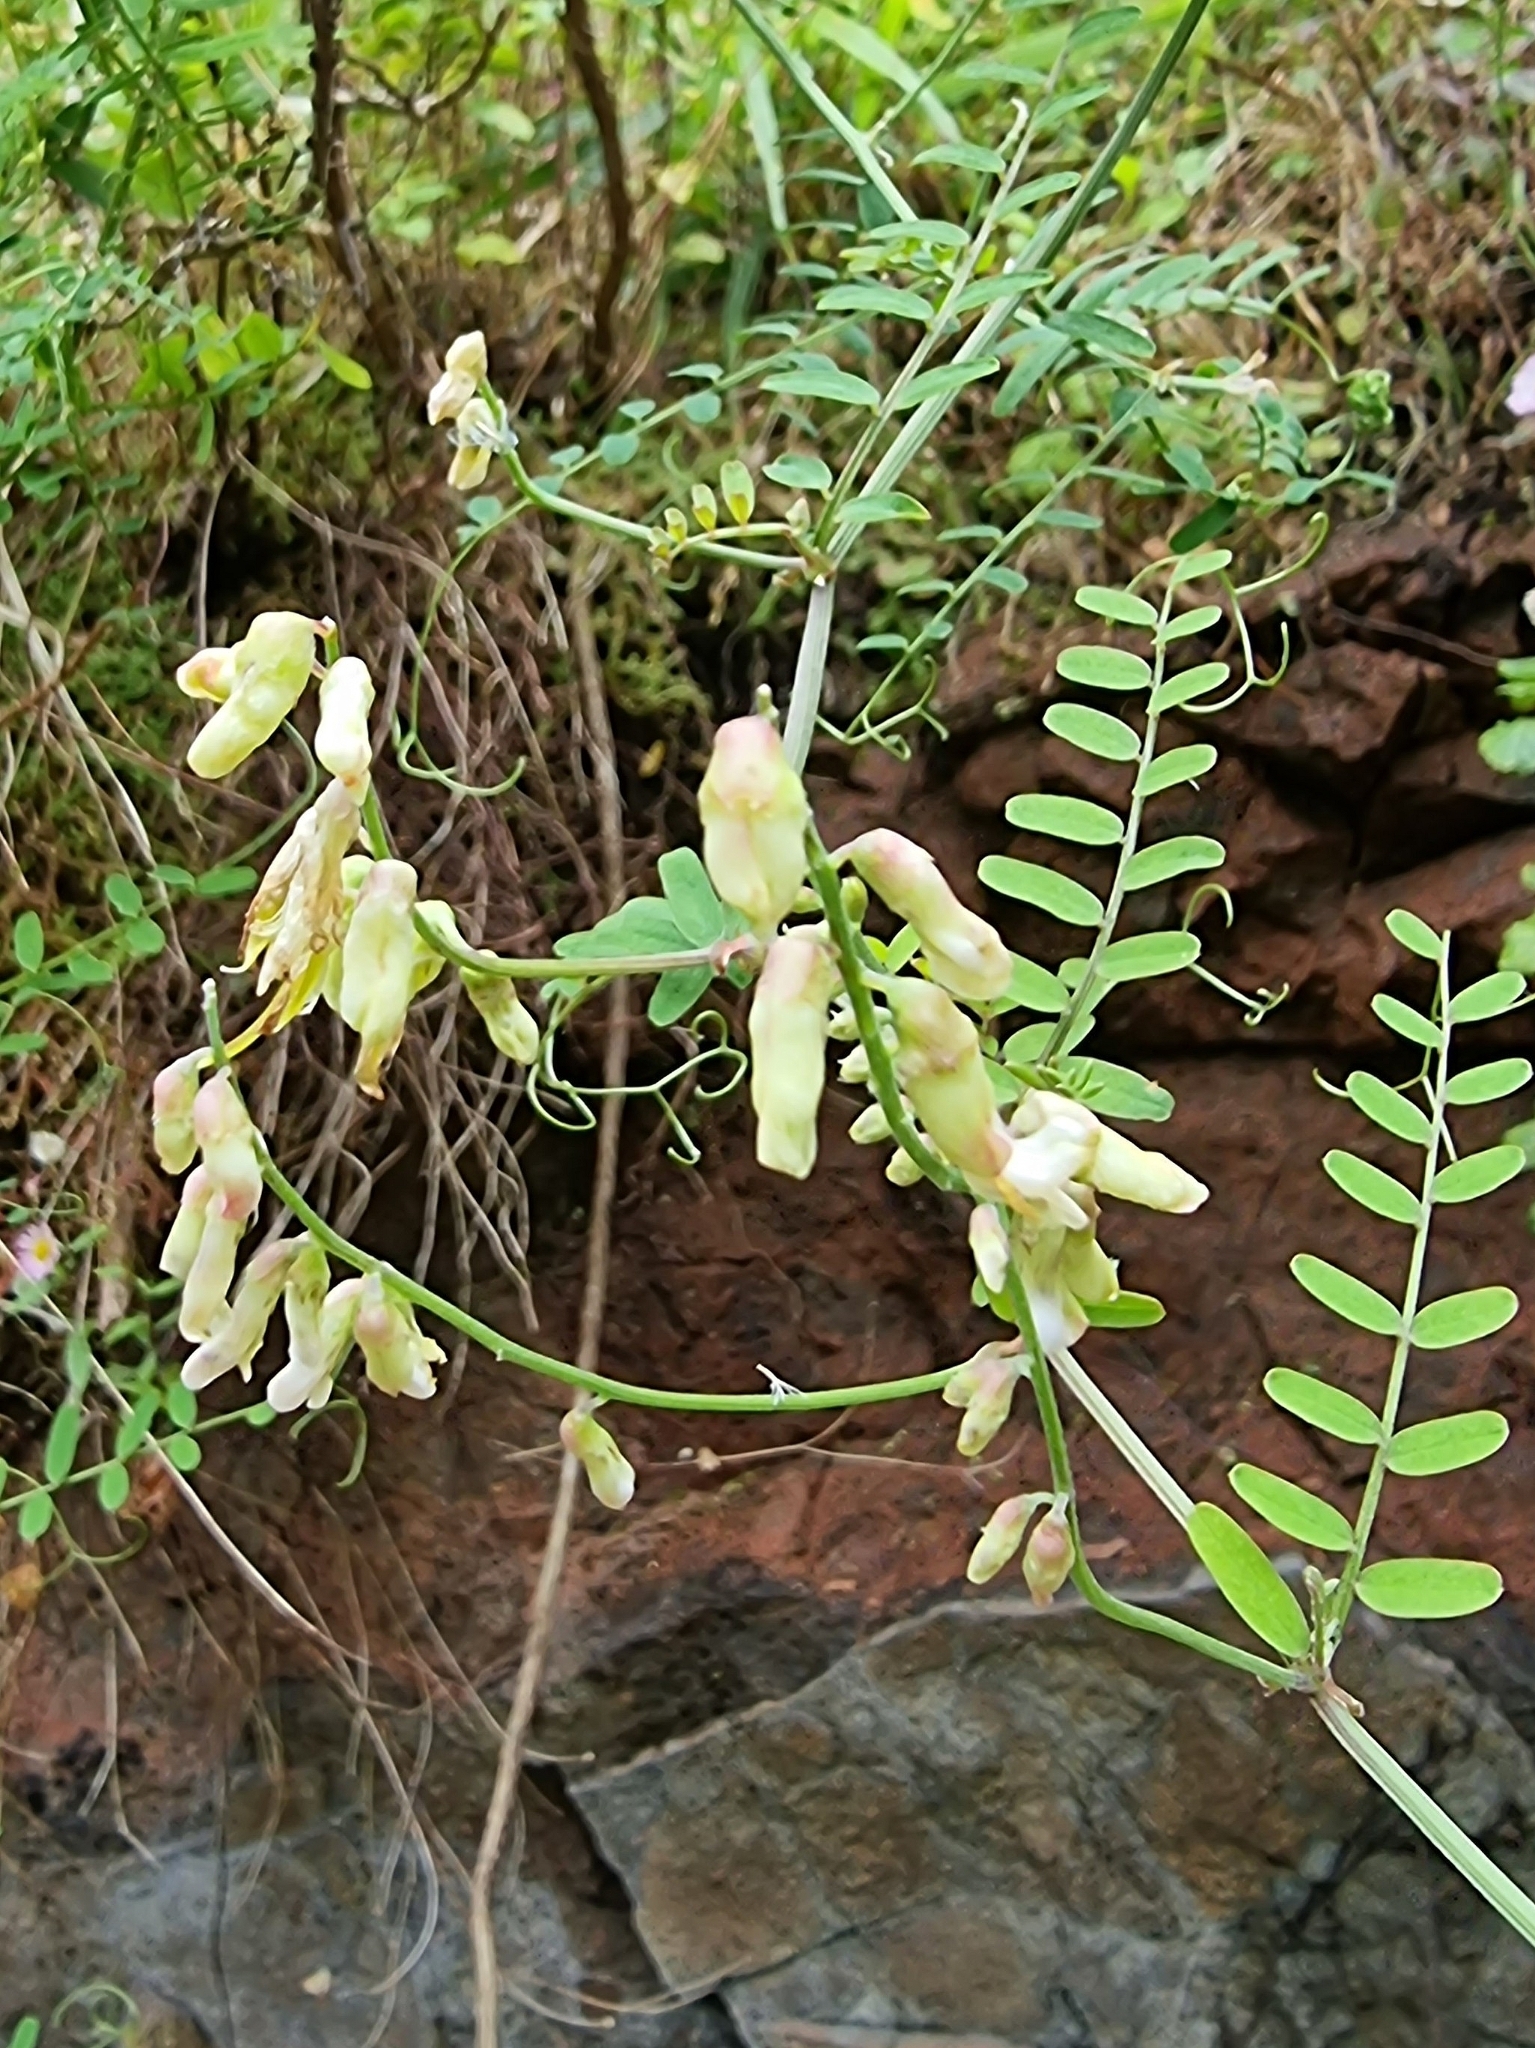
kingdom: Plantae
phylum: Tracheophyta
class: Magnoliopsida
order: Fabales
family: Fabaceae
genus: Vicia
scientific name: Vicia capreolata
